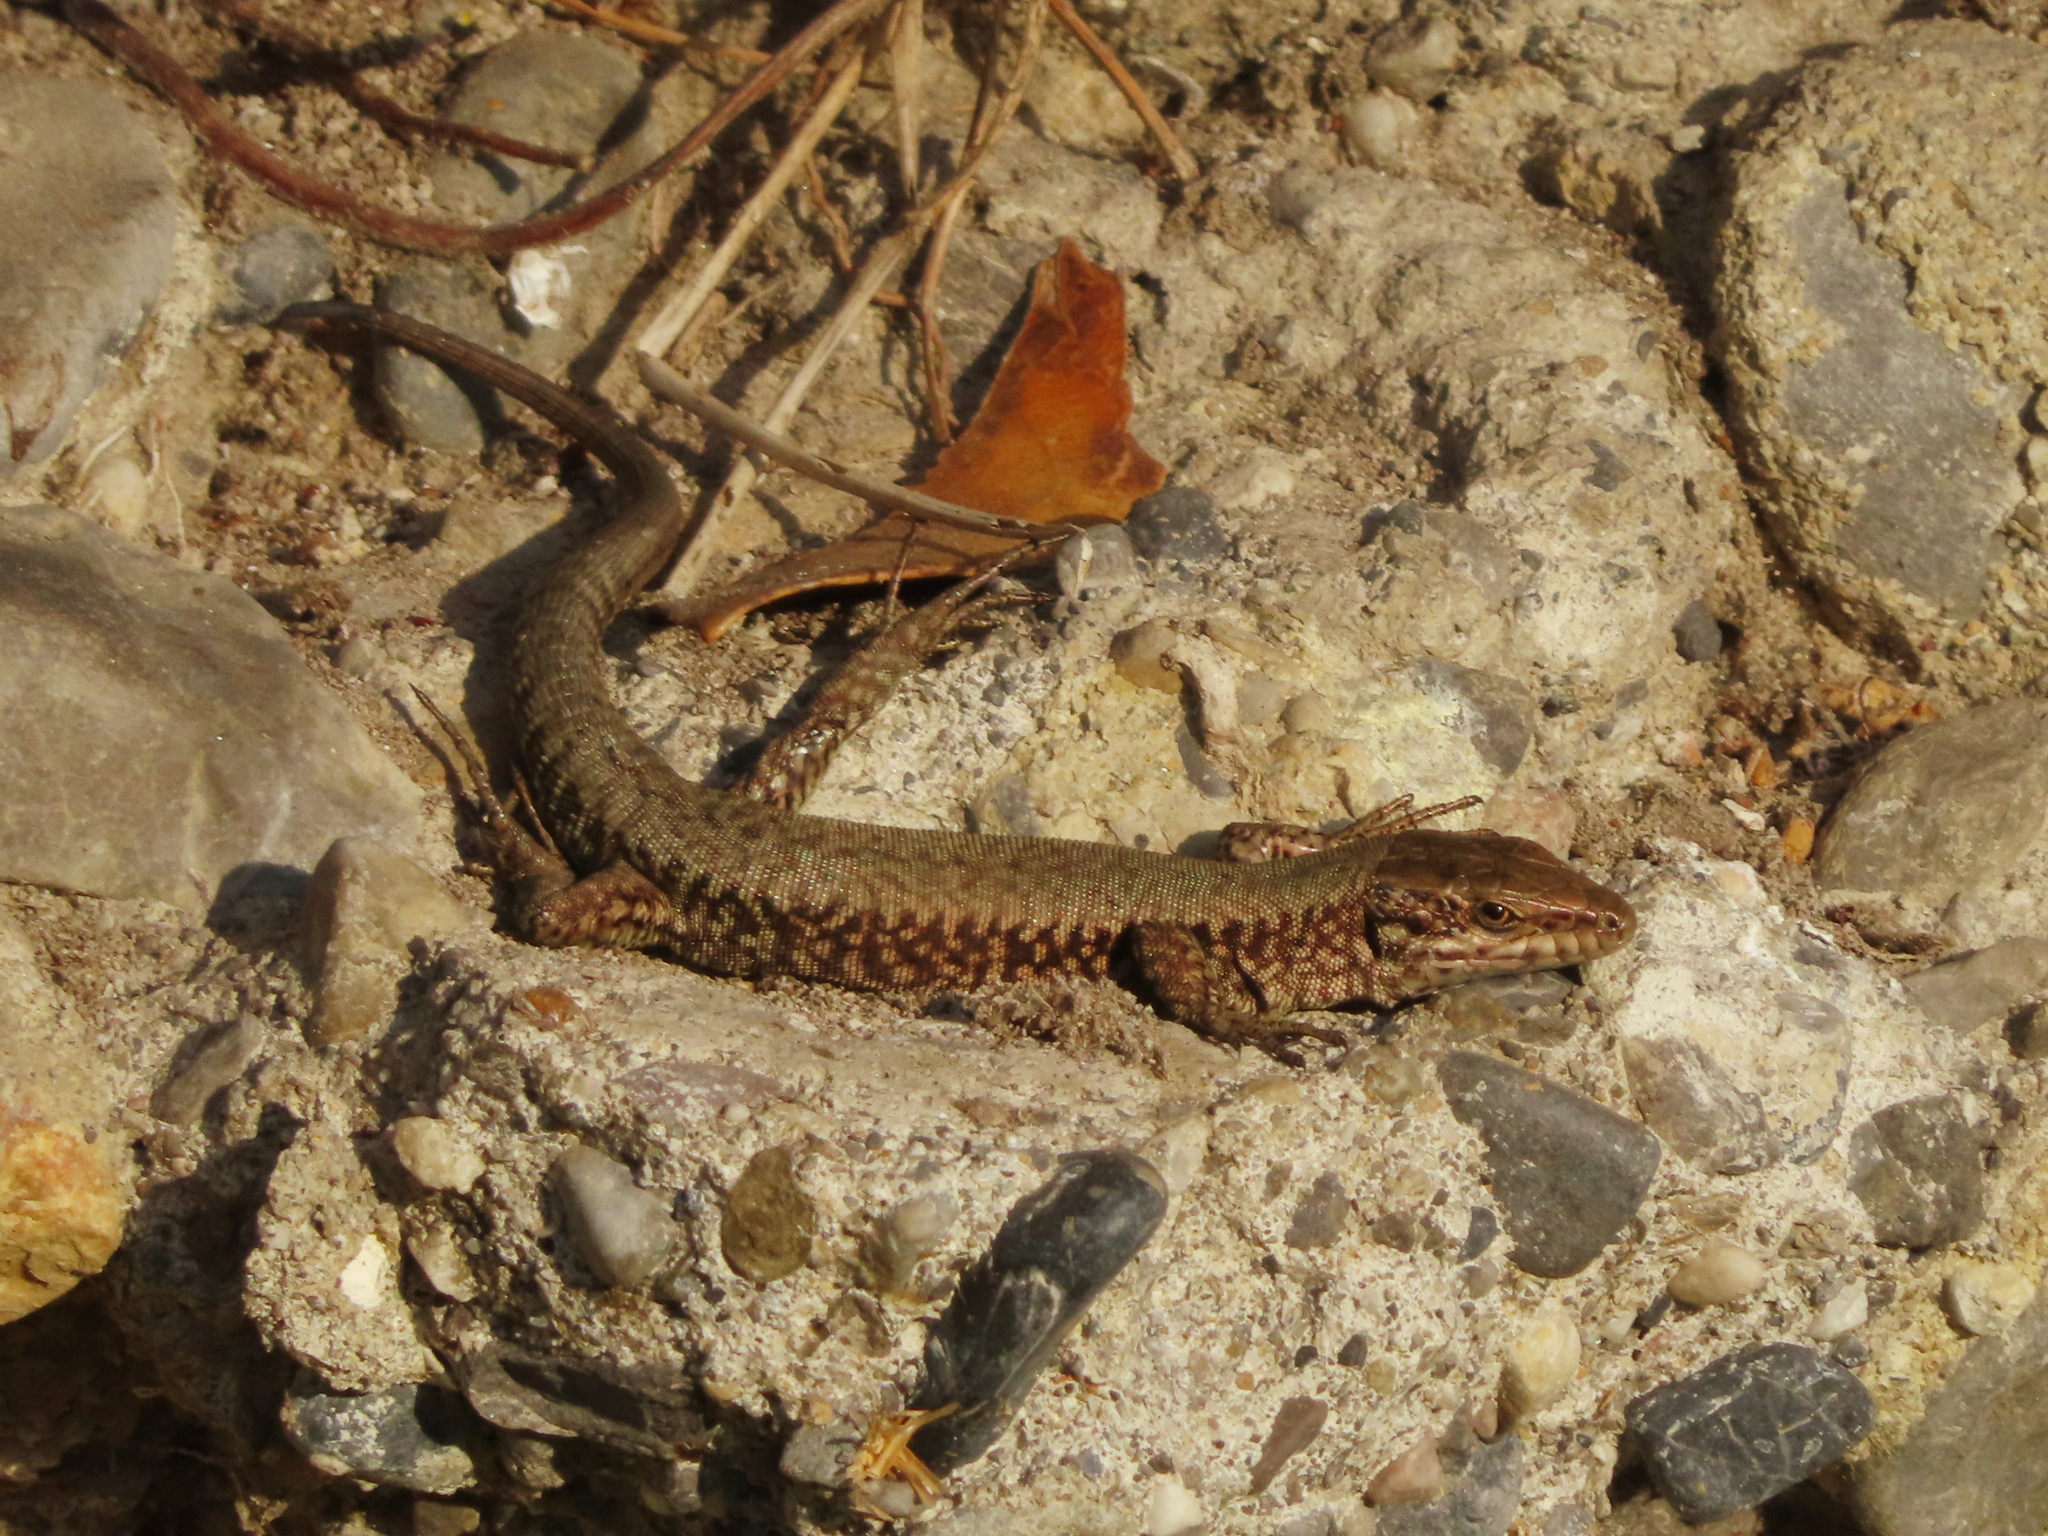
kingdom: Animalia
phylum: Chordata
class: Squamata
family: Lacertidae
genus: Podarcis
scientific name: Podarcis muralis
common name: Common wall lizard
